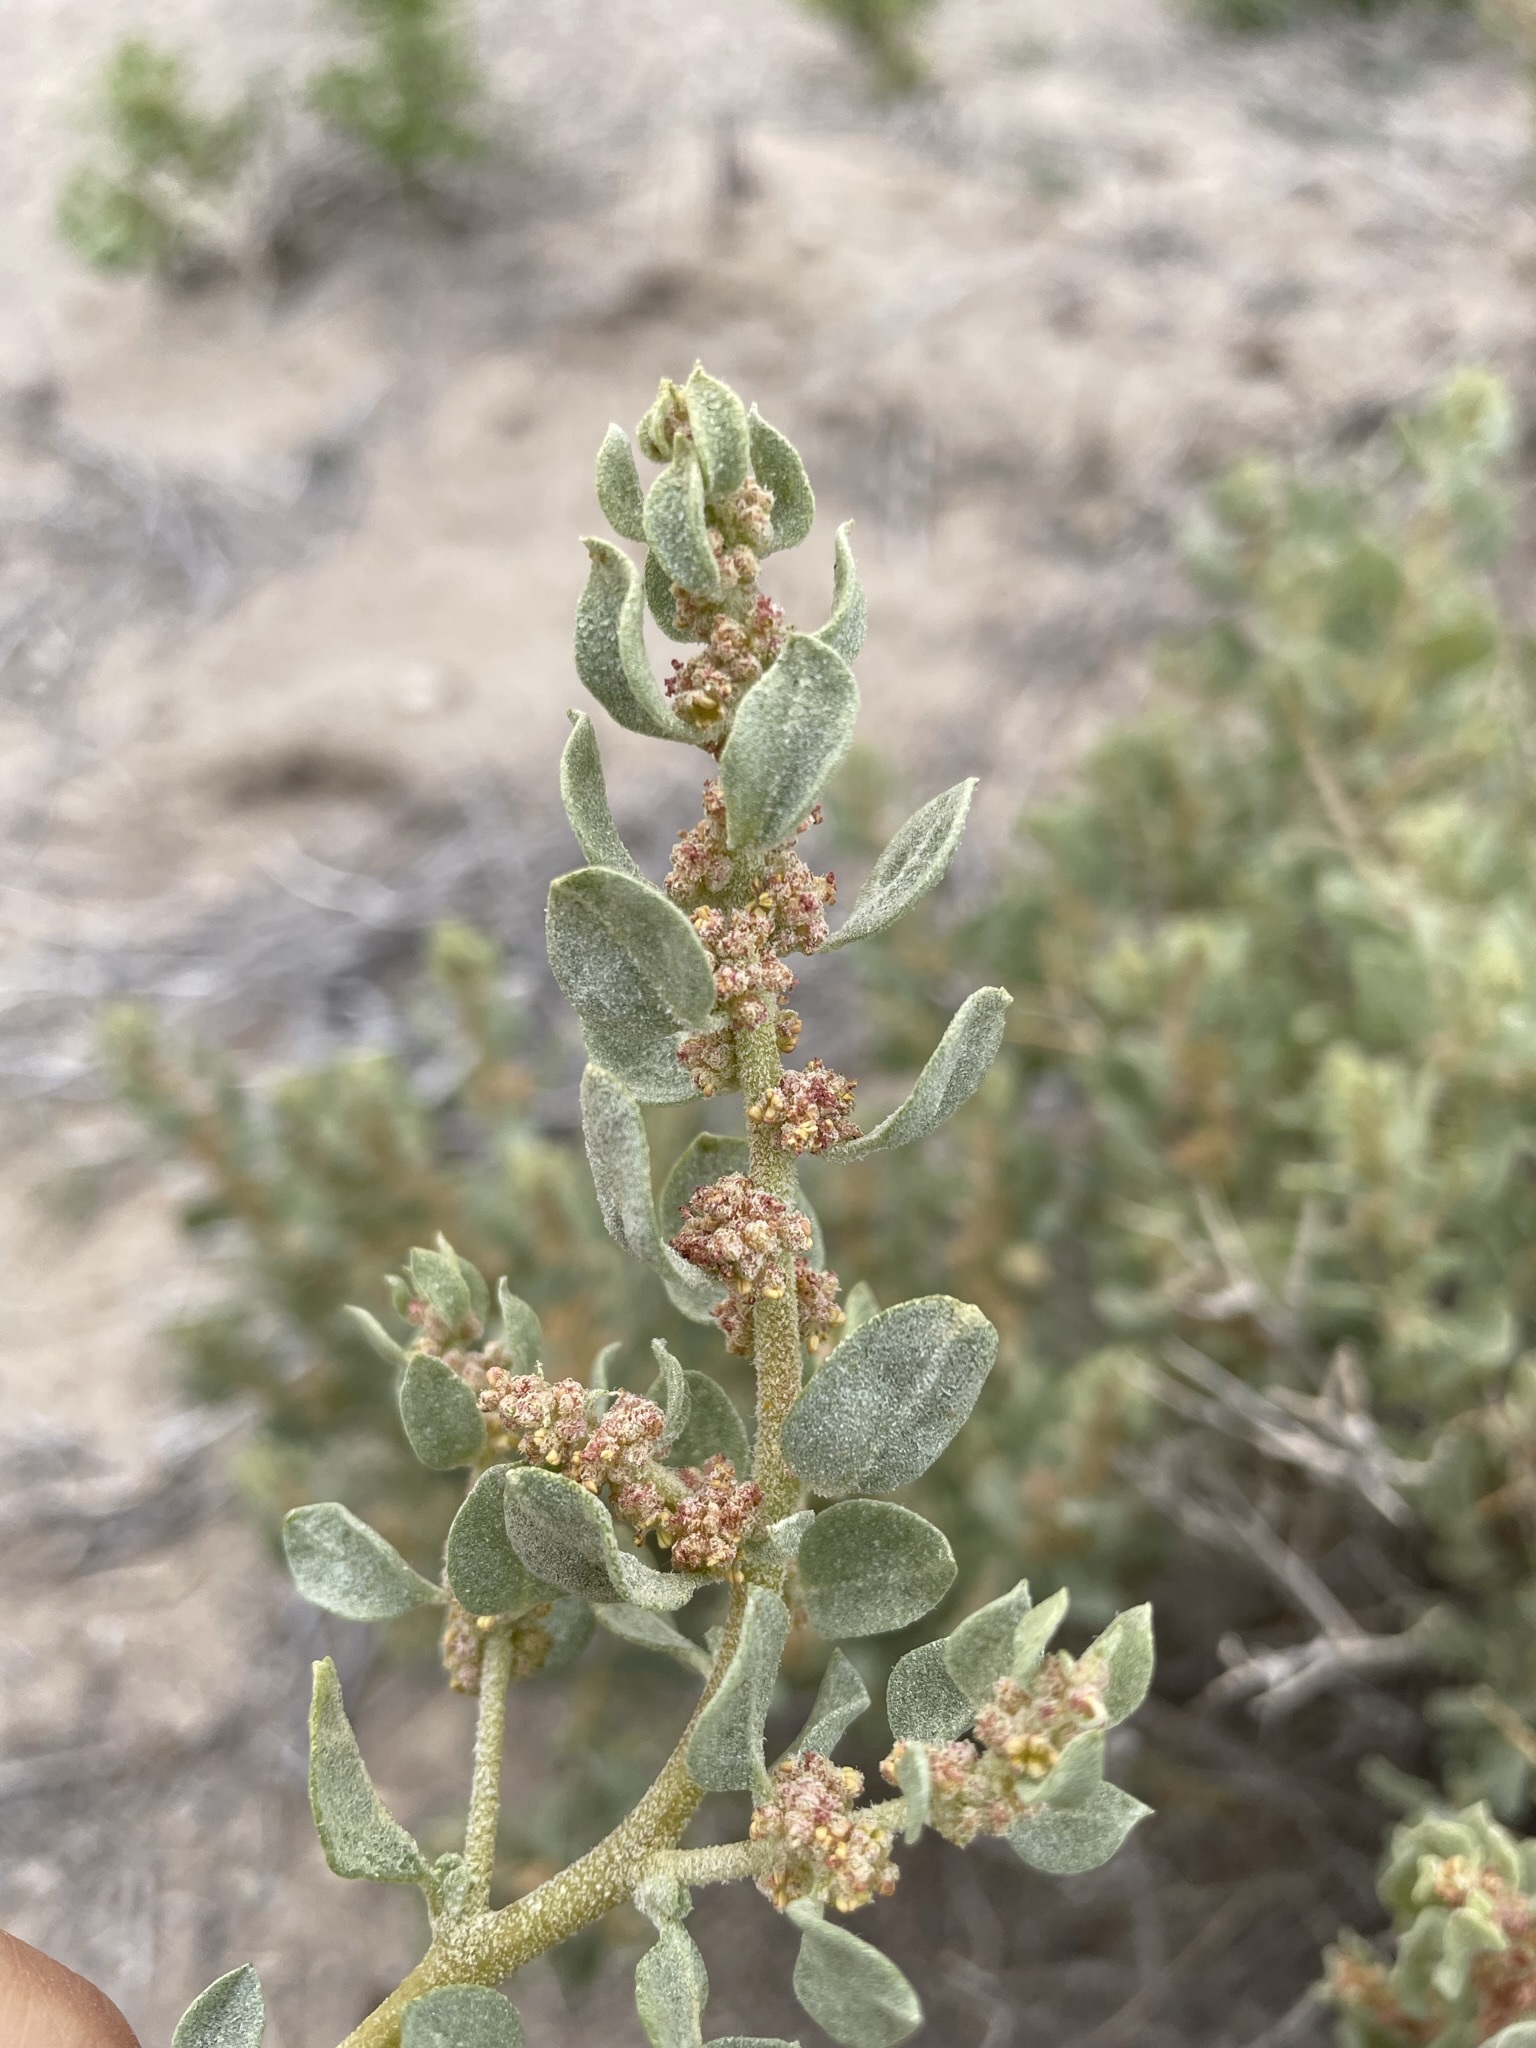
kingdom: Plantae
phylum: Tracheophyta
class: Magnoliopsida
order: Caryophyllales
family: Amaranthaceae
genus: Atriplex
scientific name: Atriplex confertifolia
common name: Shadscale
